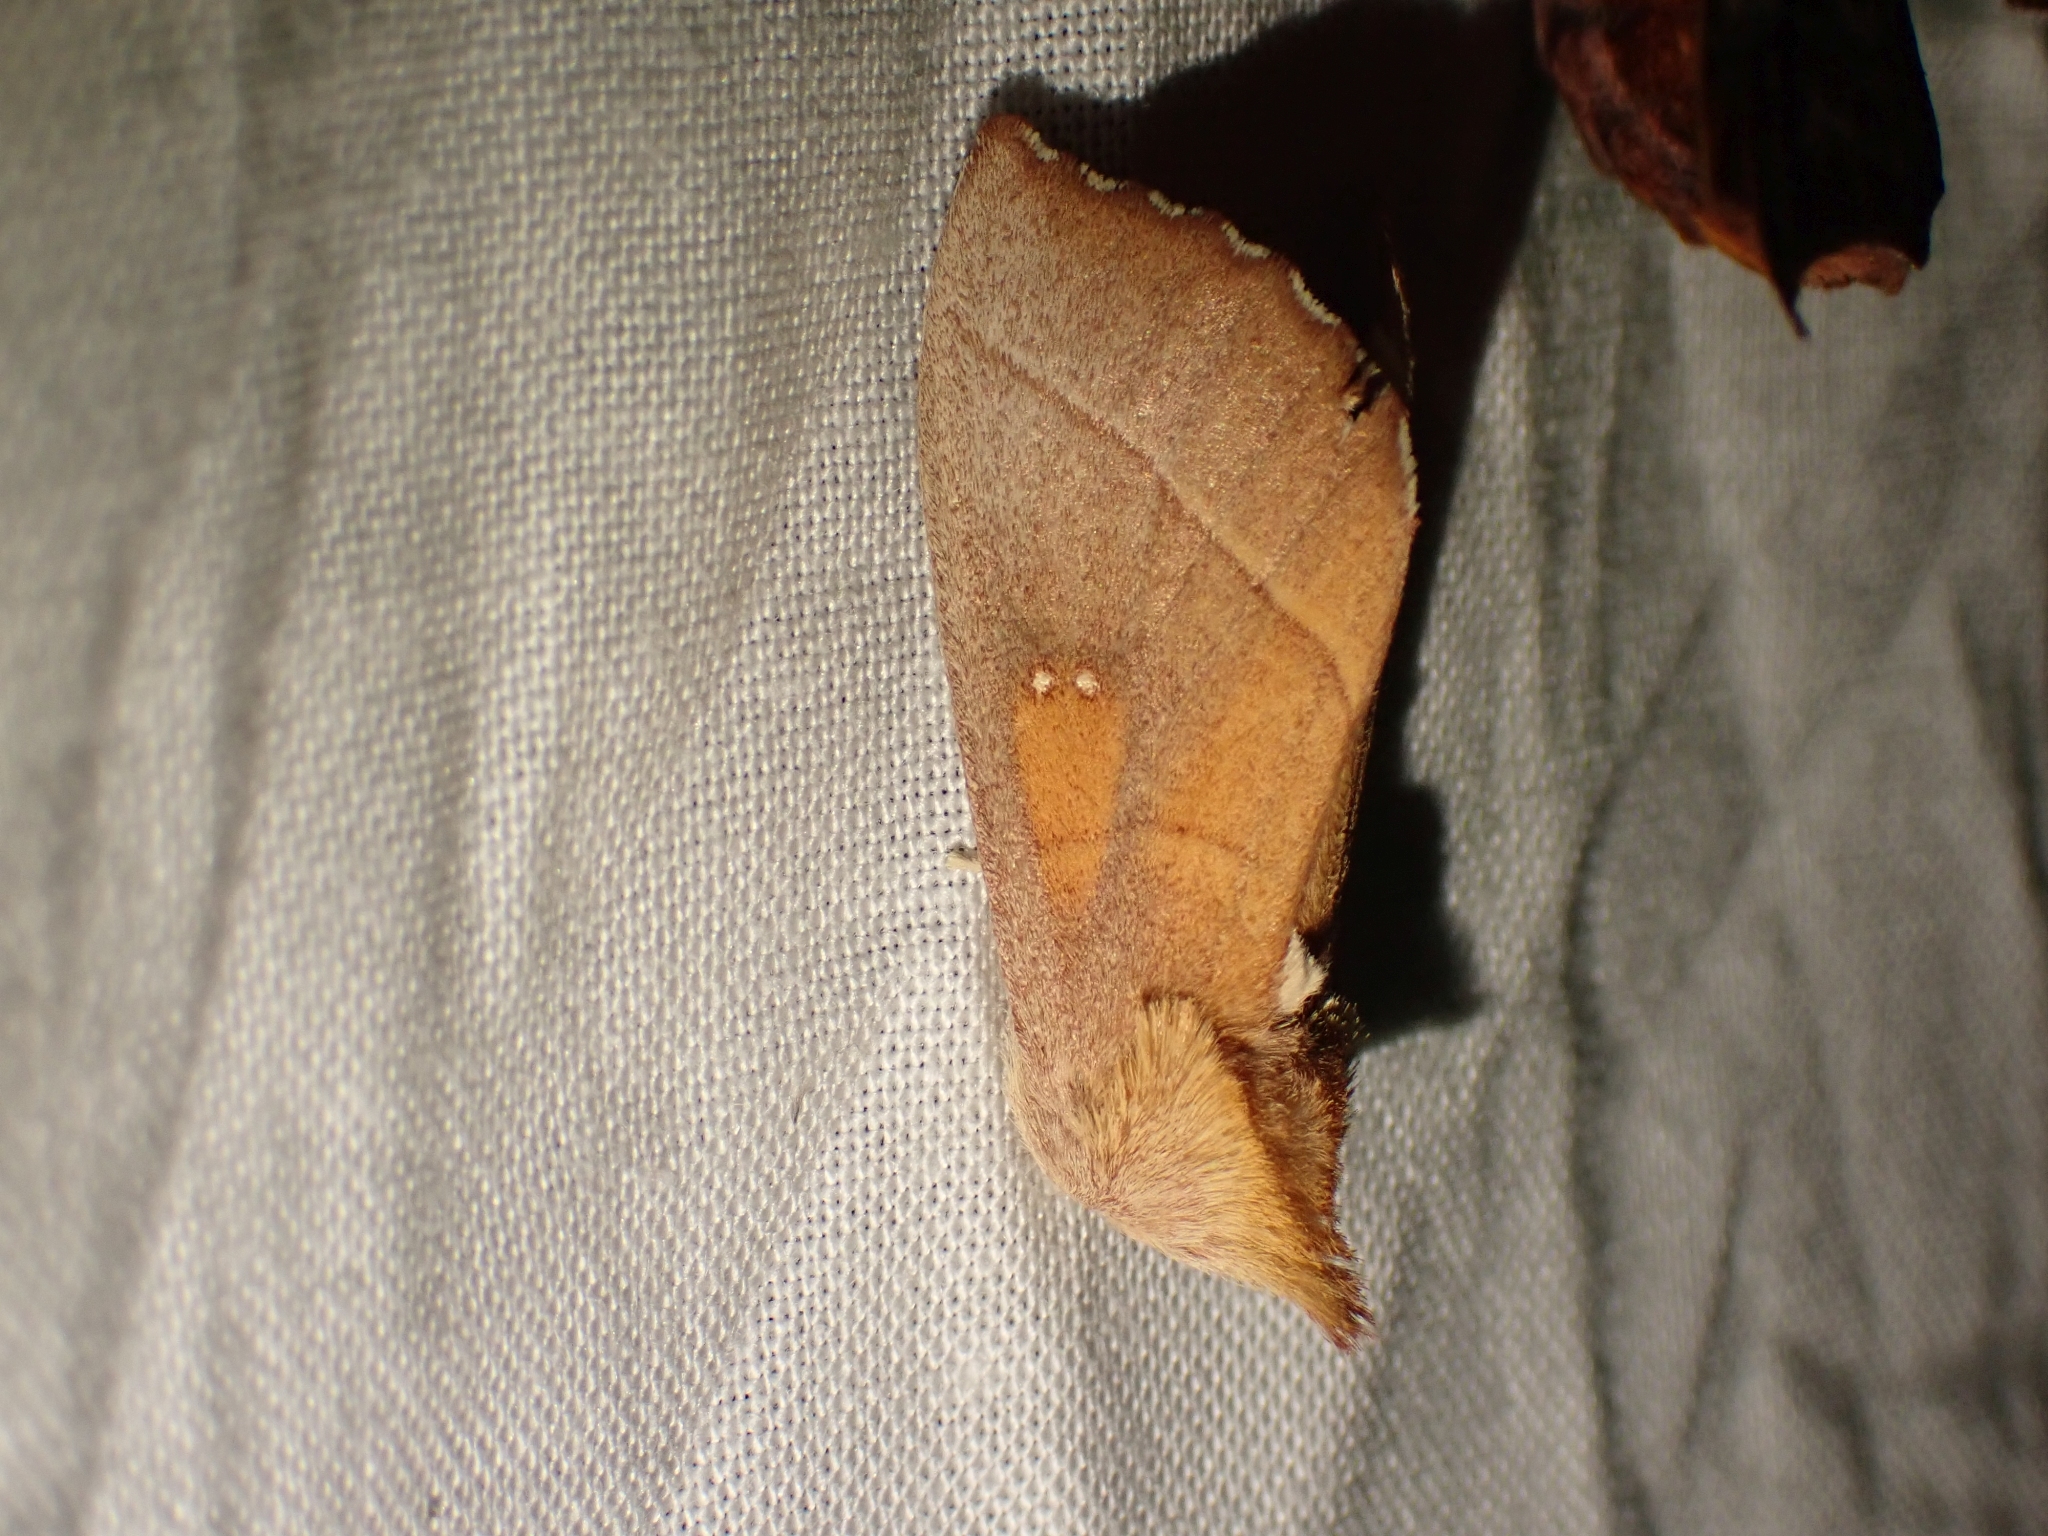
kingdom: Animalia
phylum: Arthropoda
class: Insecta
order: Lepidoptera
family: Notodontidae
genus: Nadata
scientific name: Nadata gibbosa
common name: White-dotted prominent
